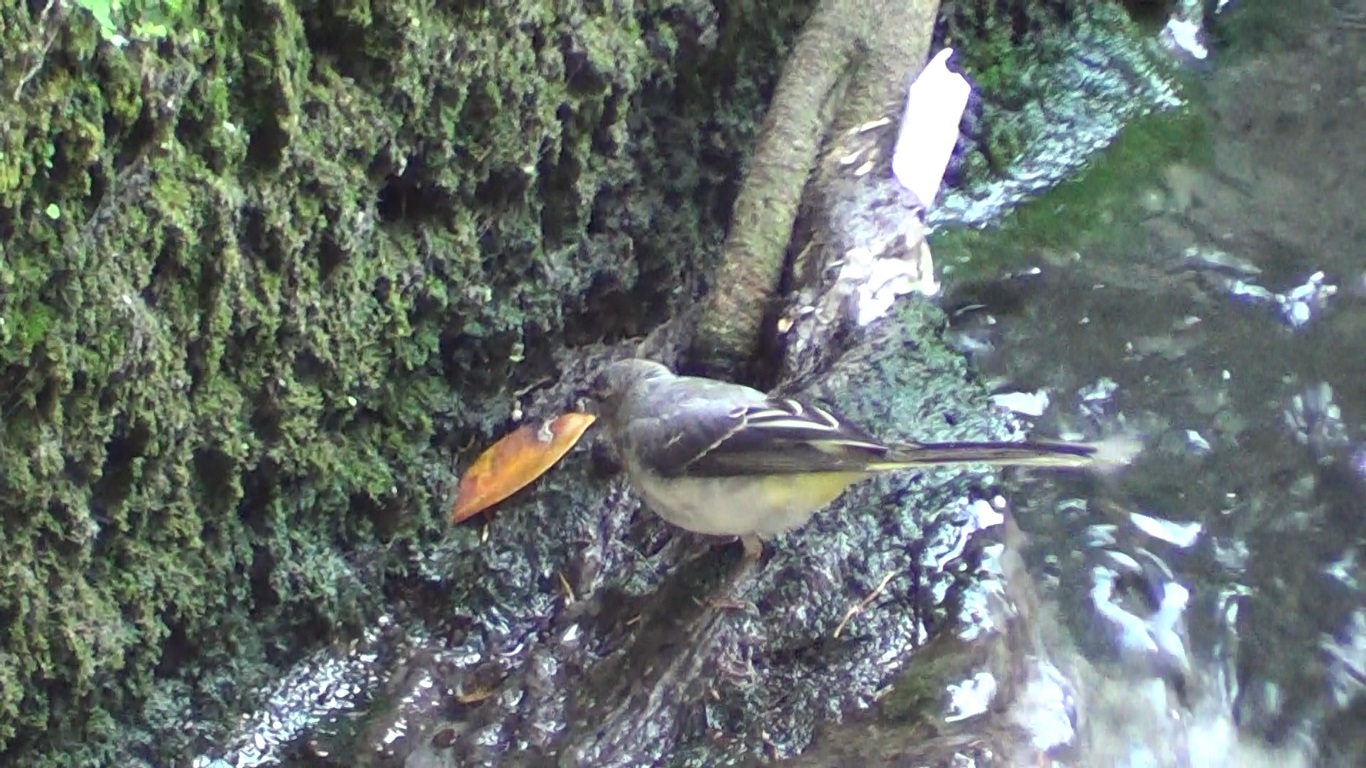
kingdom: Animalia
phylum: Chordata
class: Aves
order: Passeriformes
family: Motacillidae
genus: Motacilla
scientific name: Motacilla cinerea
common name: Grey wagtail
